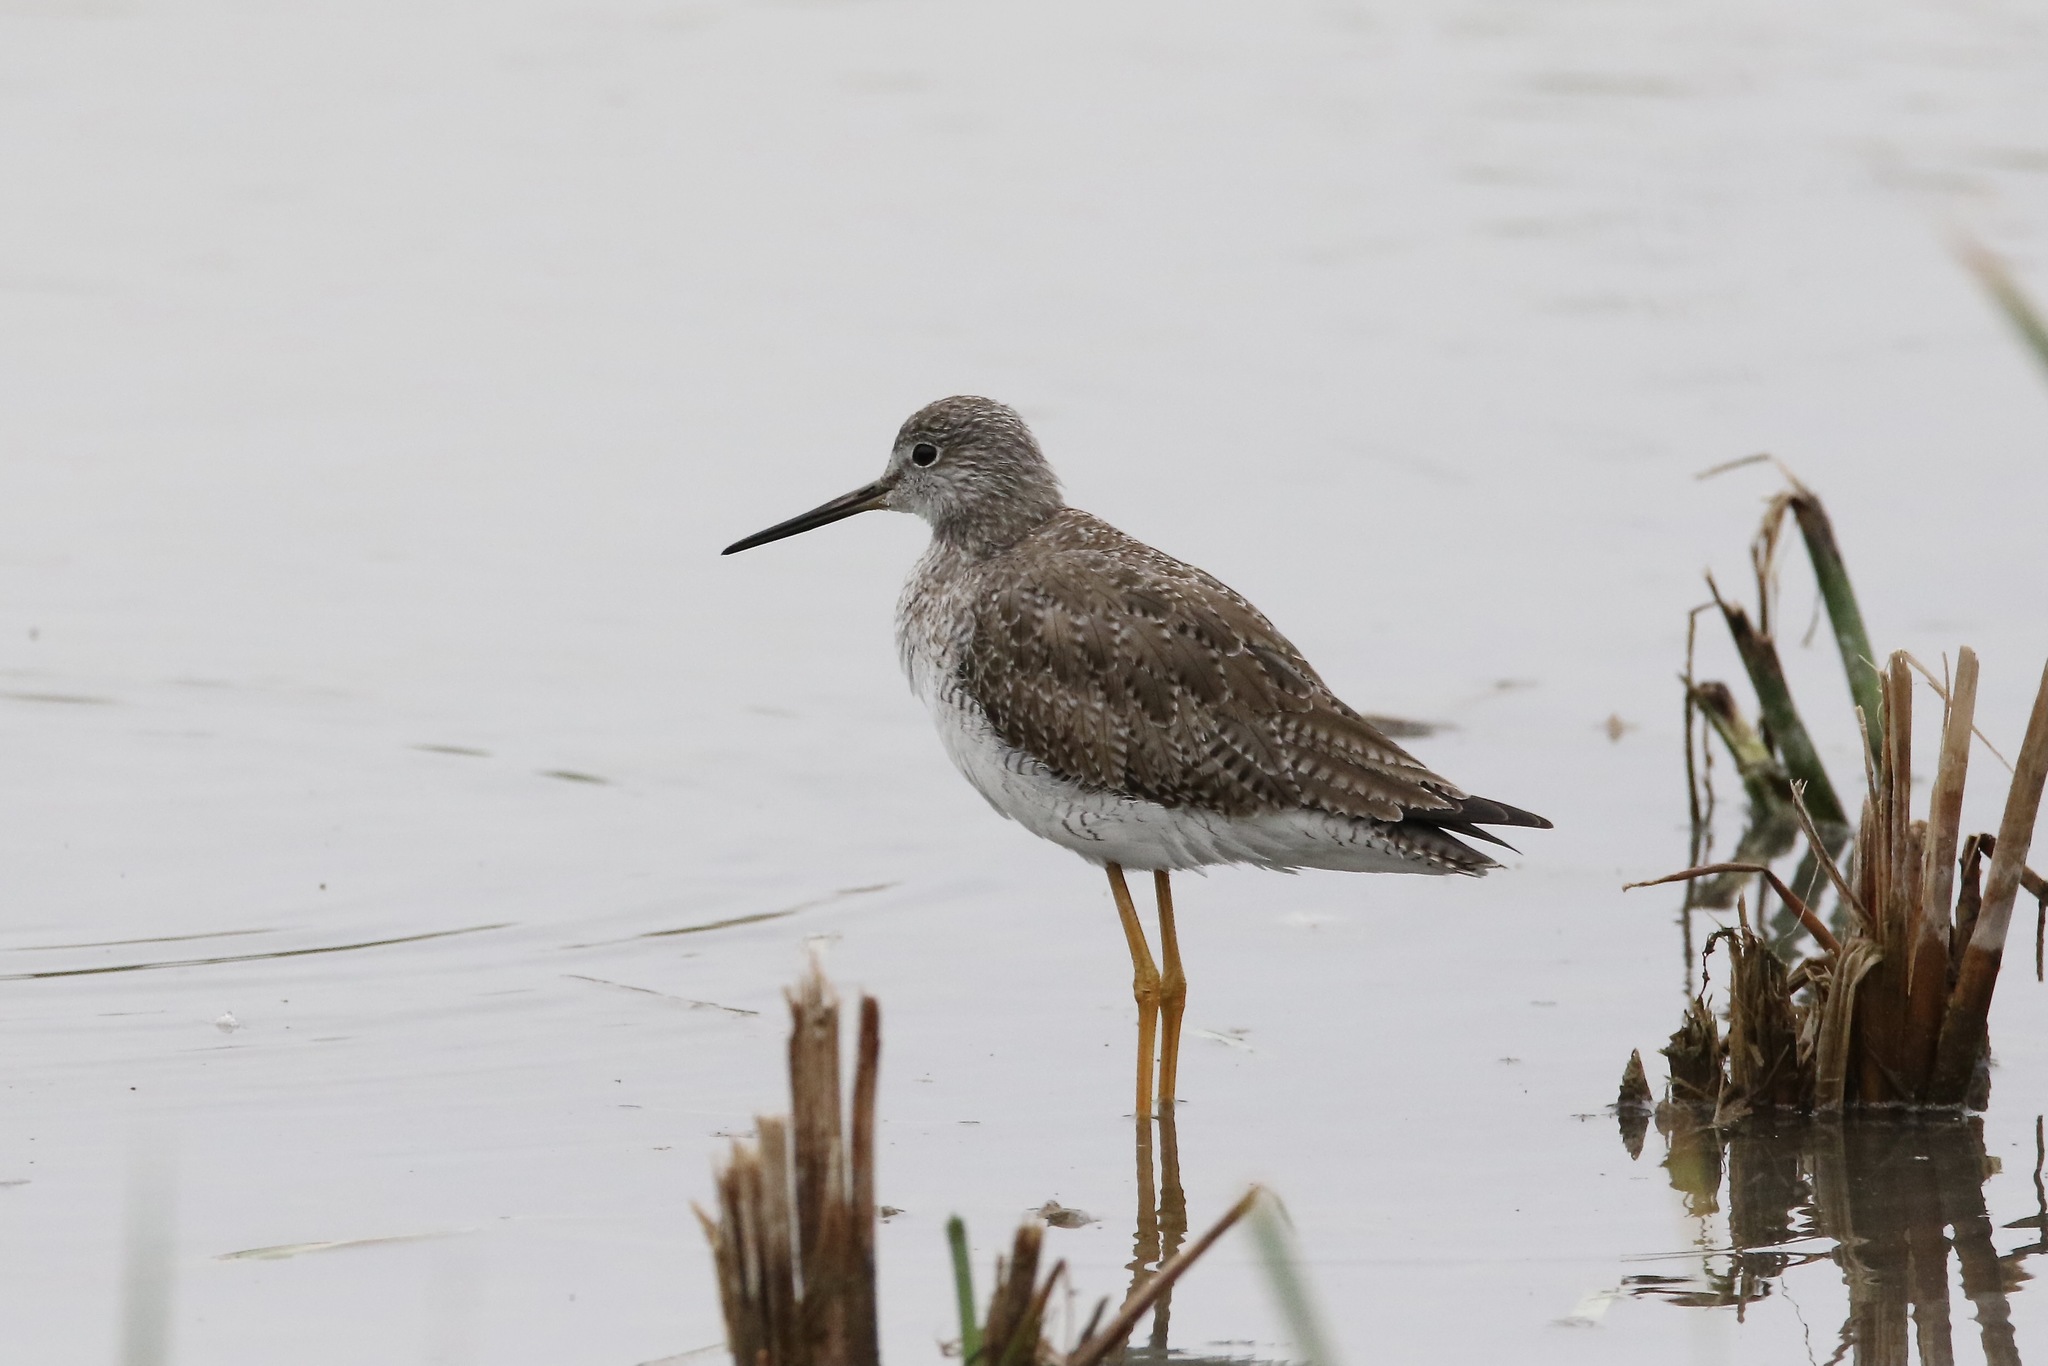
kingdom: Animalia
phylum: Chordata
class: Aves
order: Charadriiformes
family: Scolopacidae
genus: Tringa
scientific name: Tringa melanoleuca
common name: Greater yellowlegs
